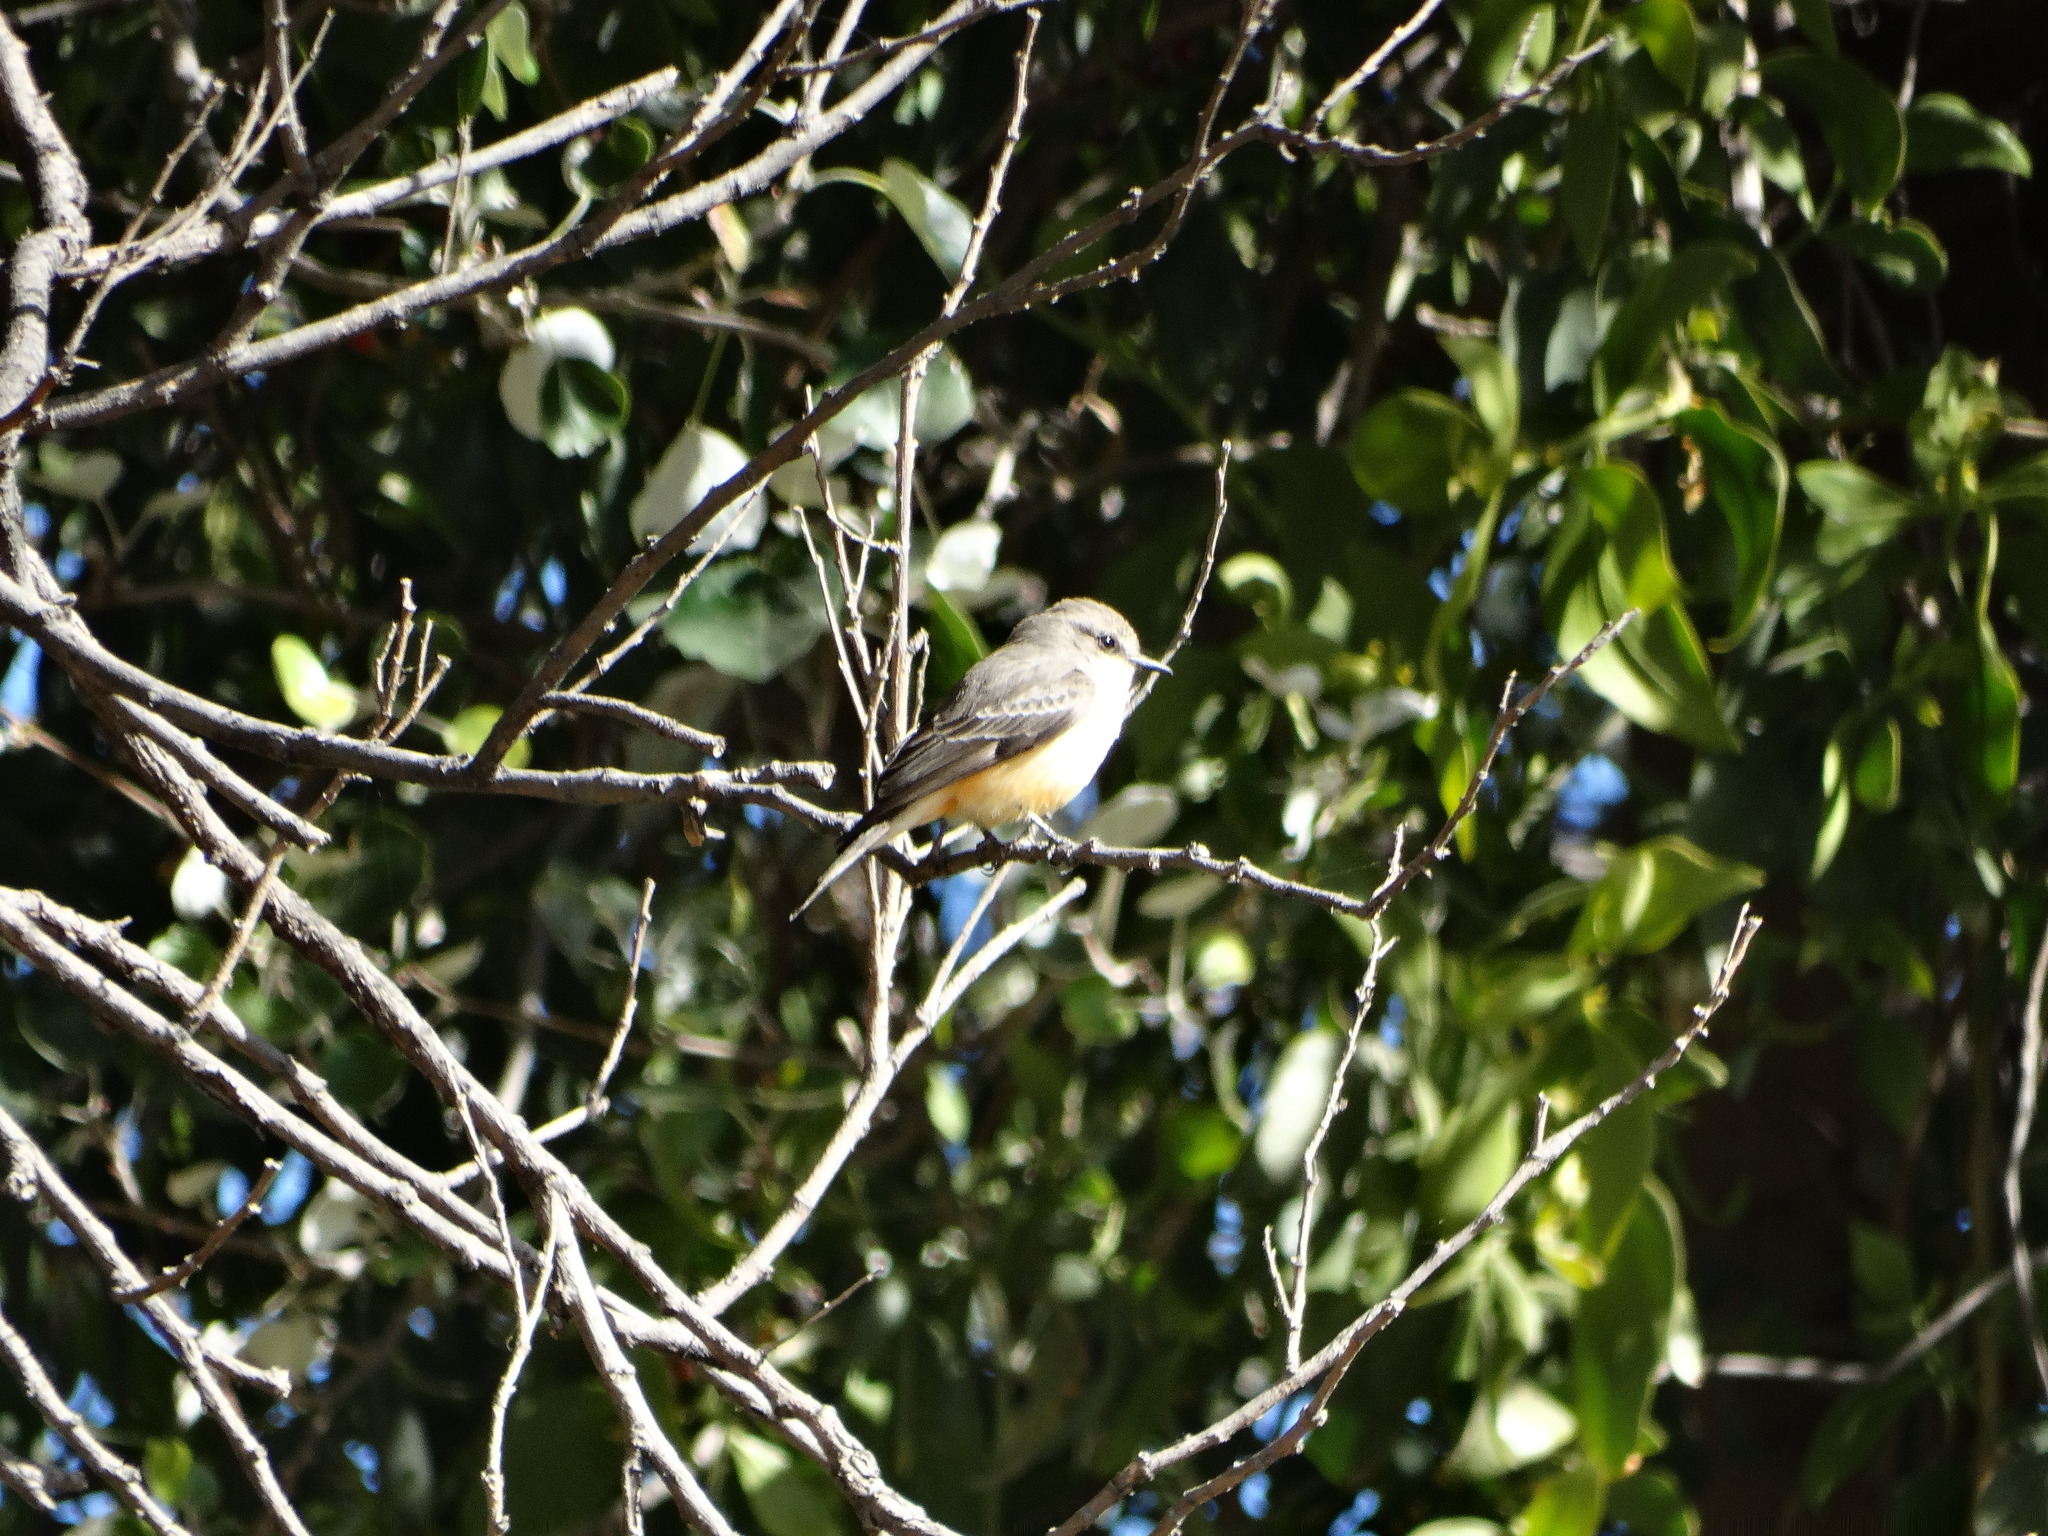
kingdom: Animalia
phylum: Chordata
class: Aves
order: Passeriformes
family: Tyrannidae
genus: Pyrocephalus
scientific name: Pyrocephalus rubinus
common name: Vermilion flycatcher
